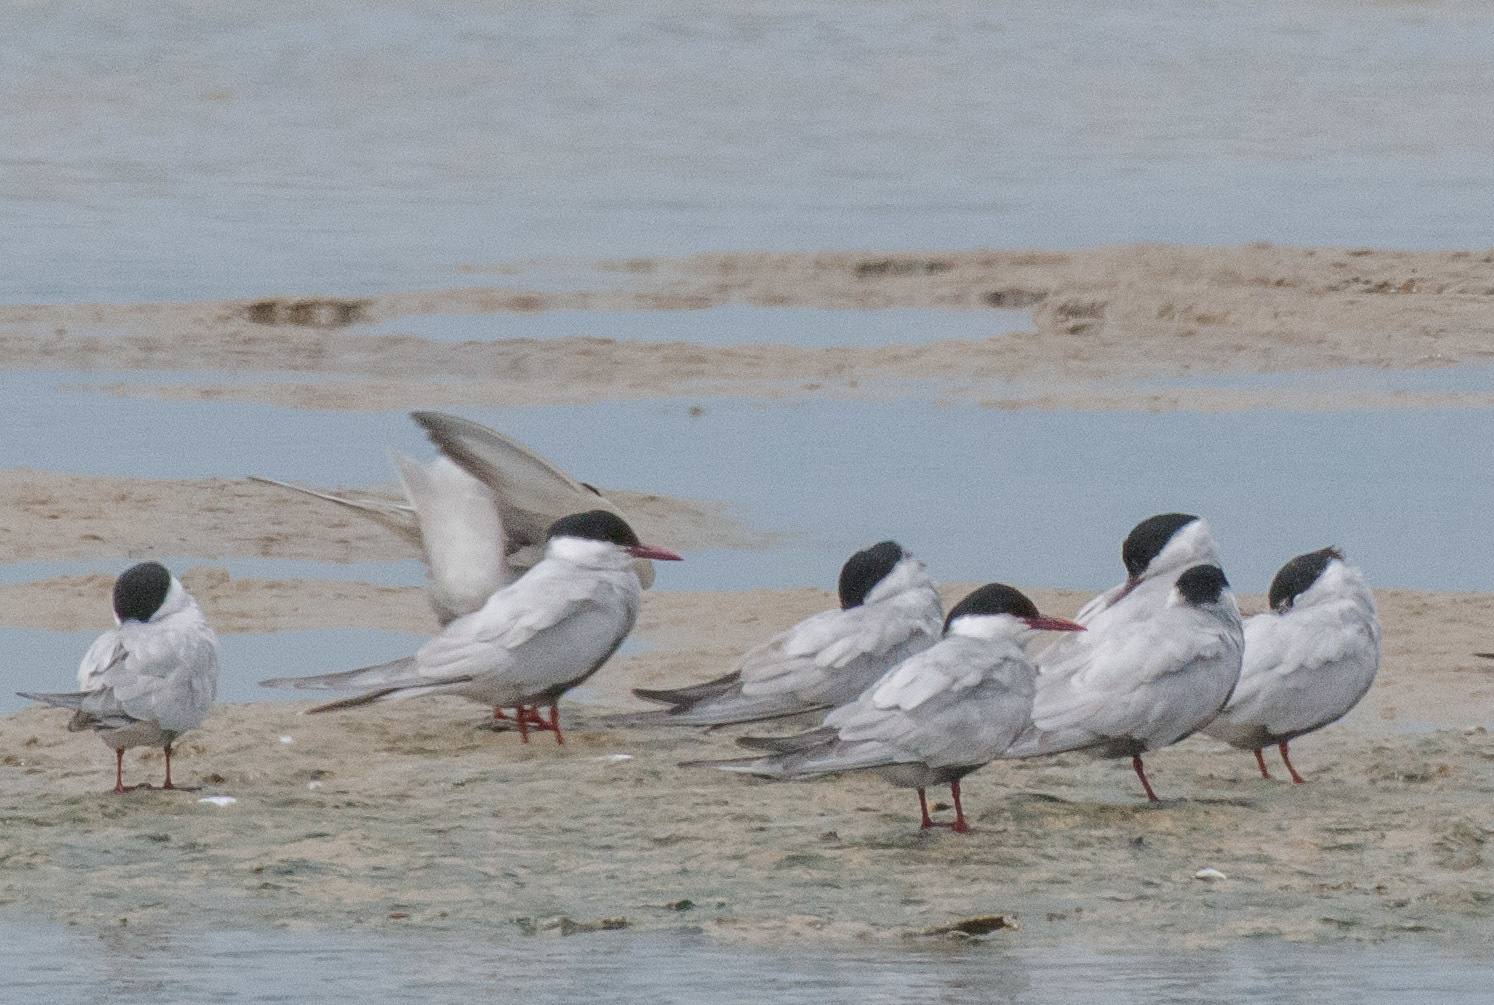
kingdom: Animalia
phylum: Chordata
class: Aves
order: Charadriiformes
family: Laridae
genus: Chlidonias
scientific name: Chlidonias hybrida
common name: Whiskered tern
